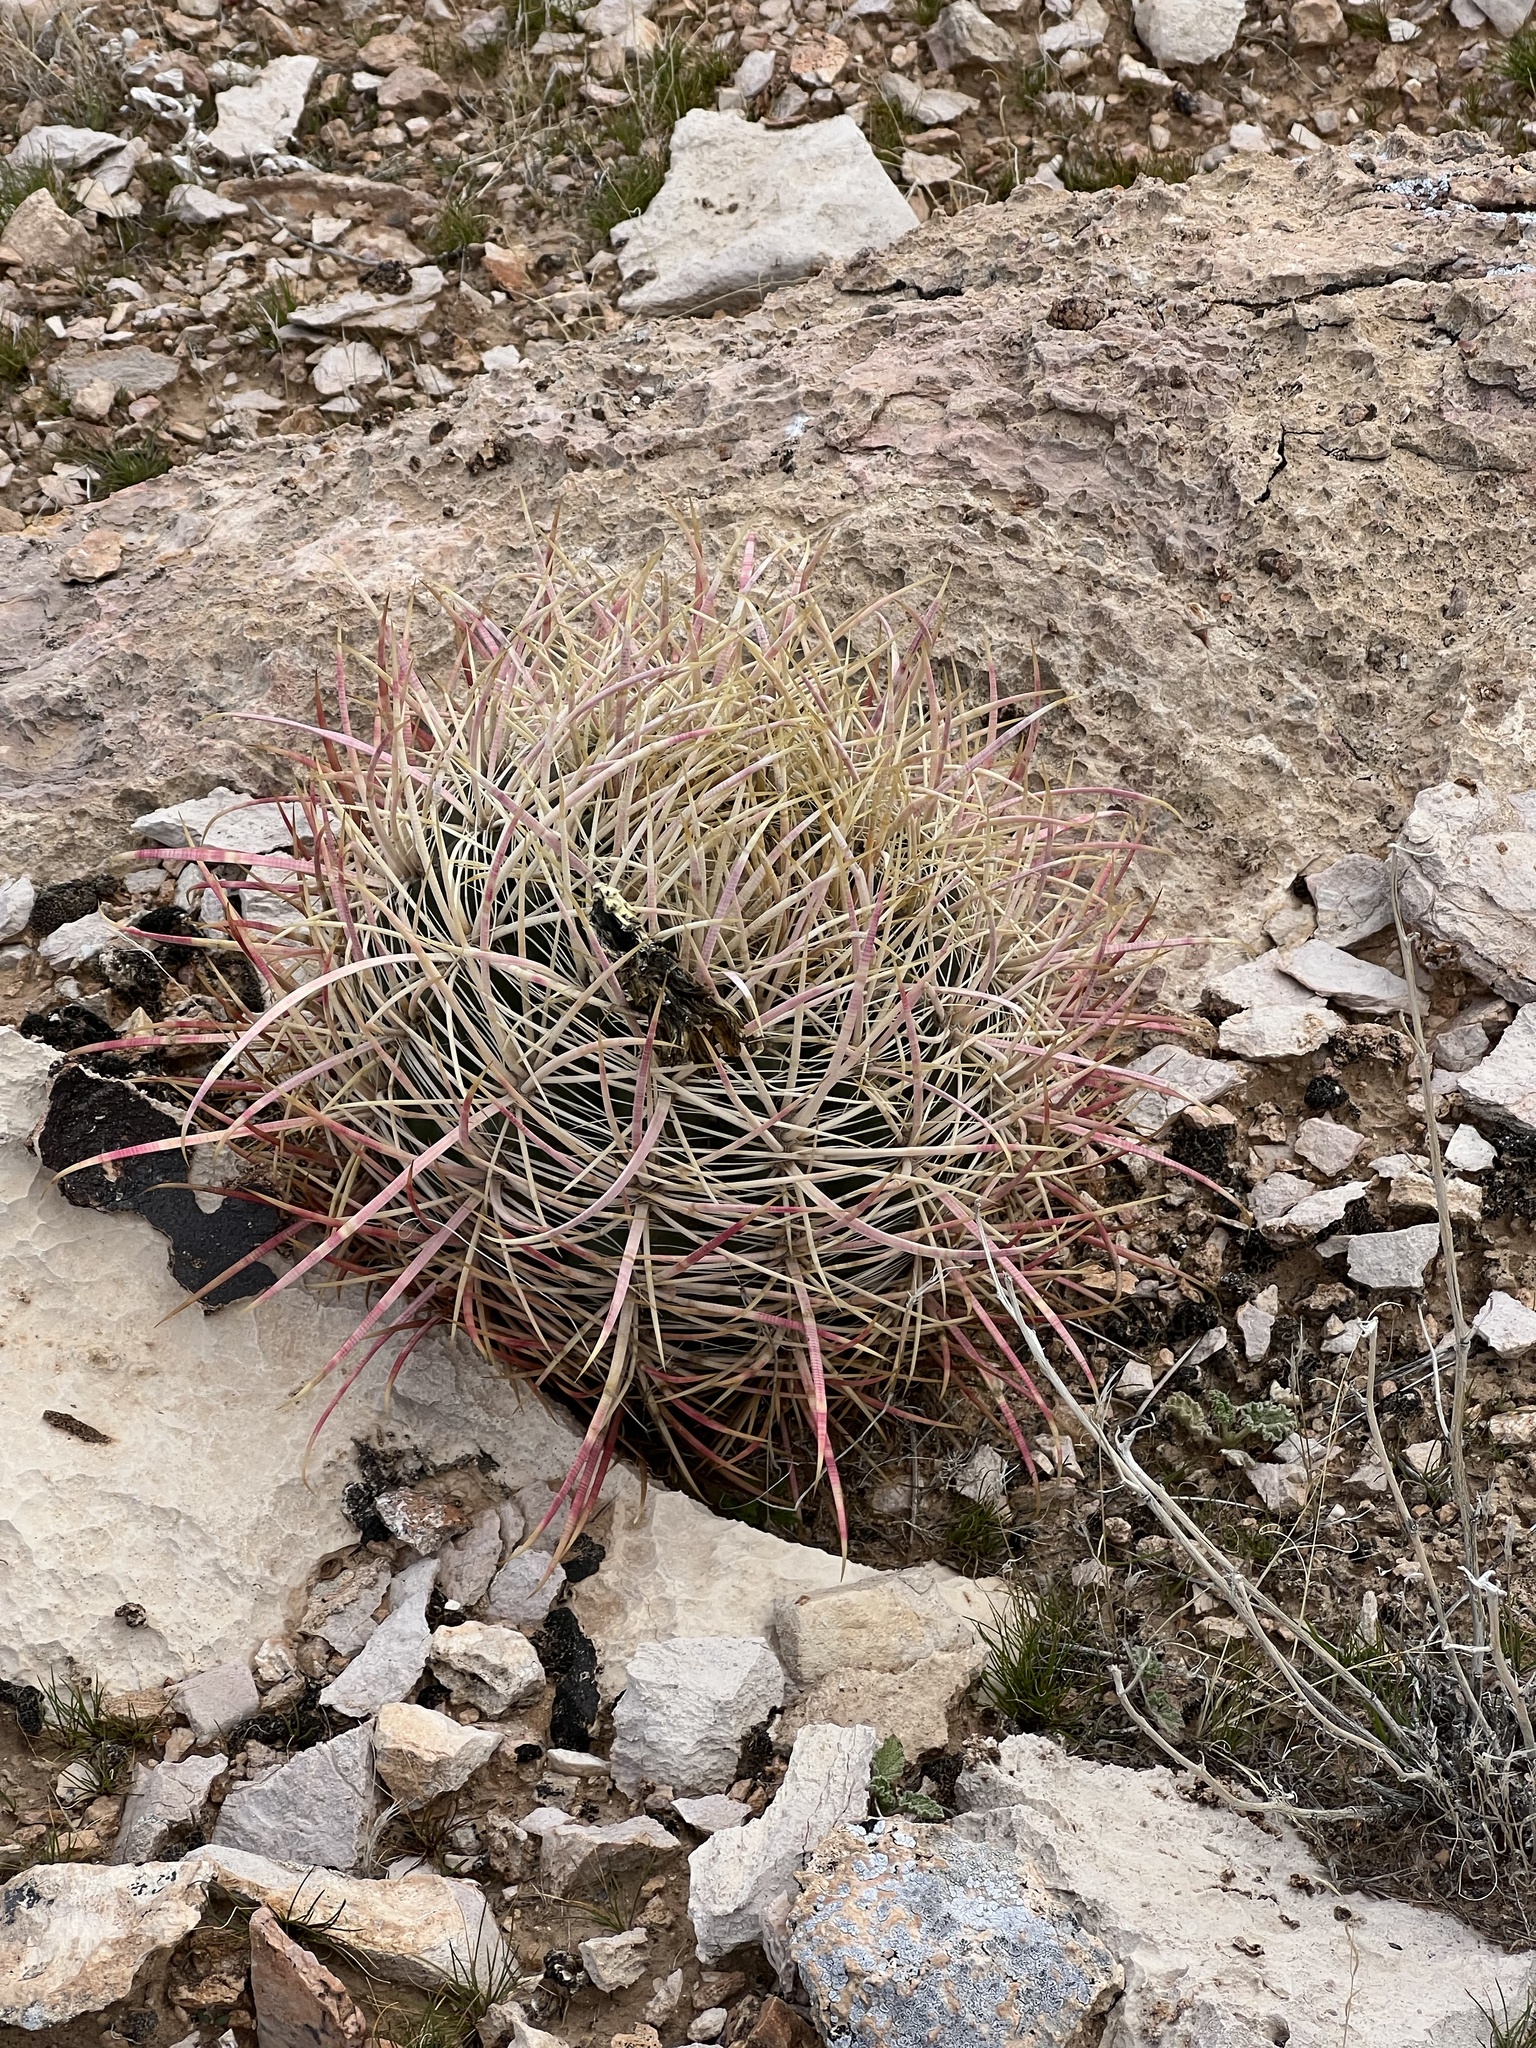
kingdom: Plantae
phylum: Tracheophyta
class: Magnoliopsida
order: Caryophyllales
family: Cactaceae
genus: Ferocactus
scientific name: Ferocactus cylindraceus
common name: California barrel cactus
